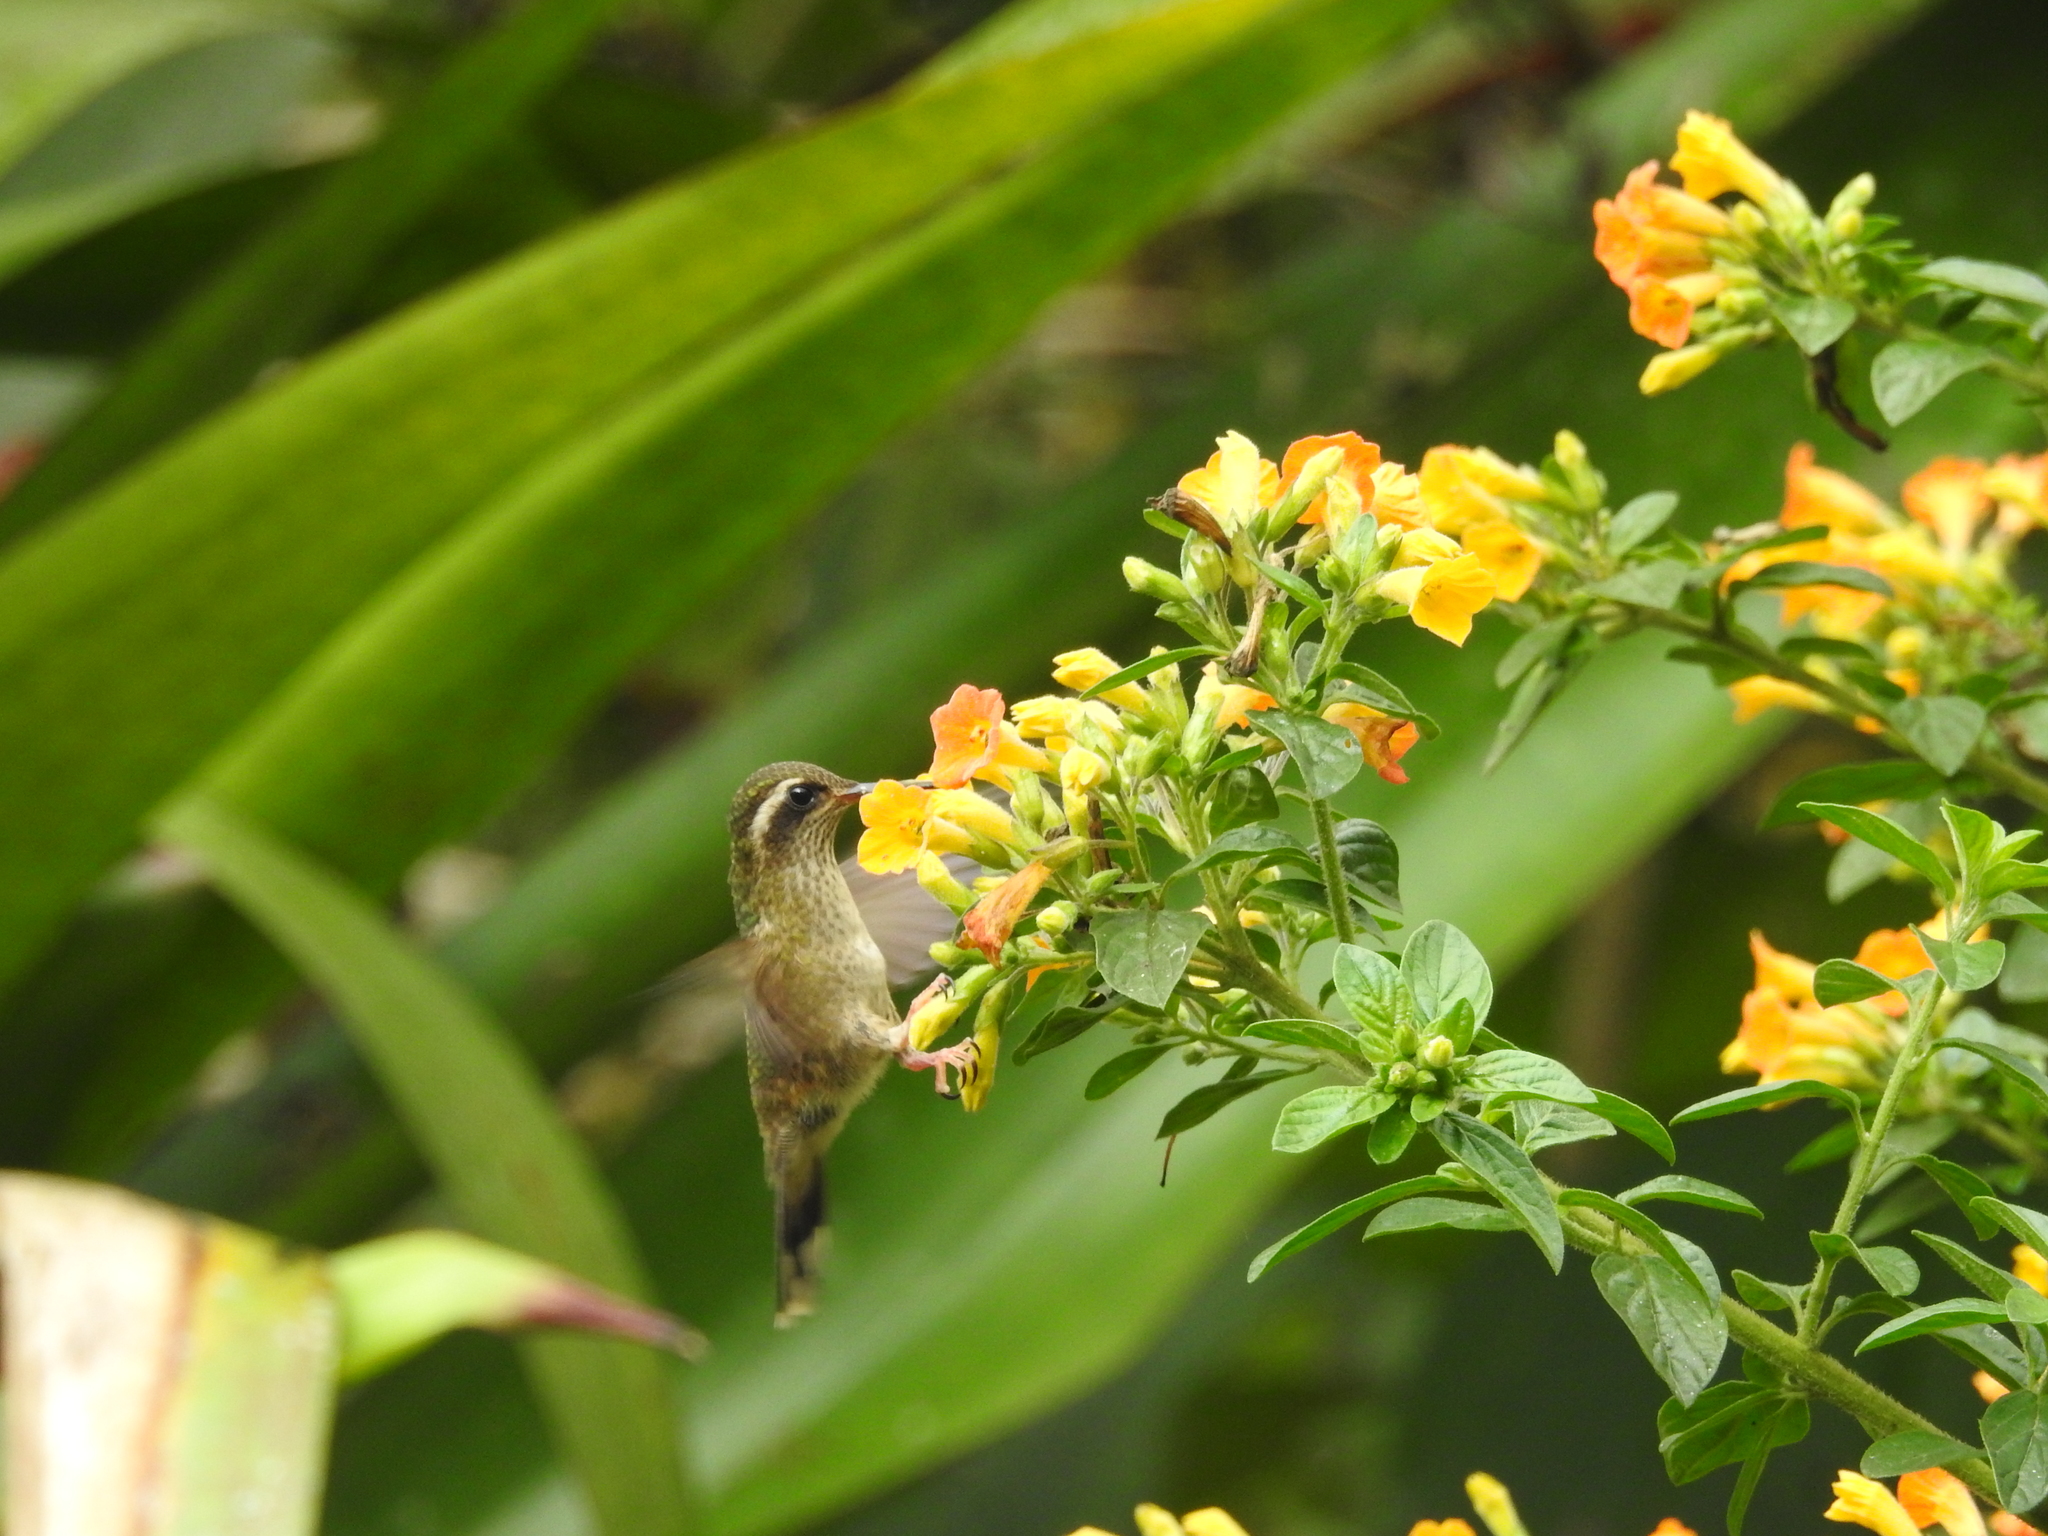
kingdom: Animalia
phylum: Chordata
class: Aves
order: Apodiformes
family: Trochilidae
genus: Adelomyia
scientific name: Adelomyia melanogenys
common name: Speckled hummingbird
